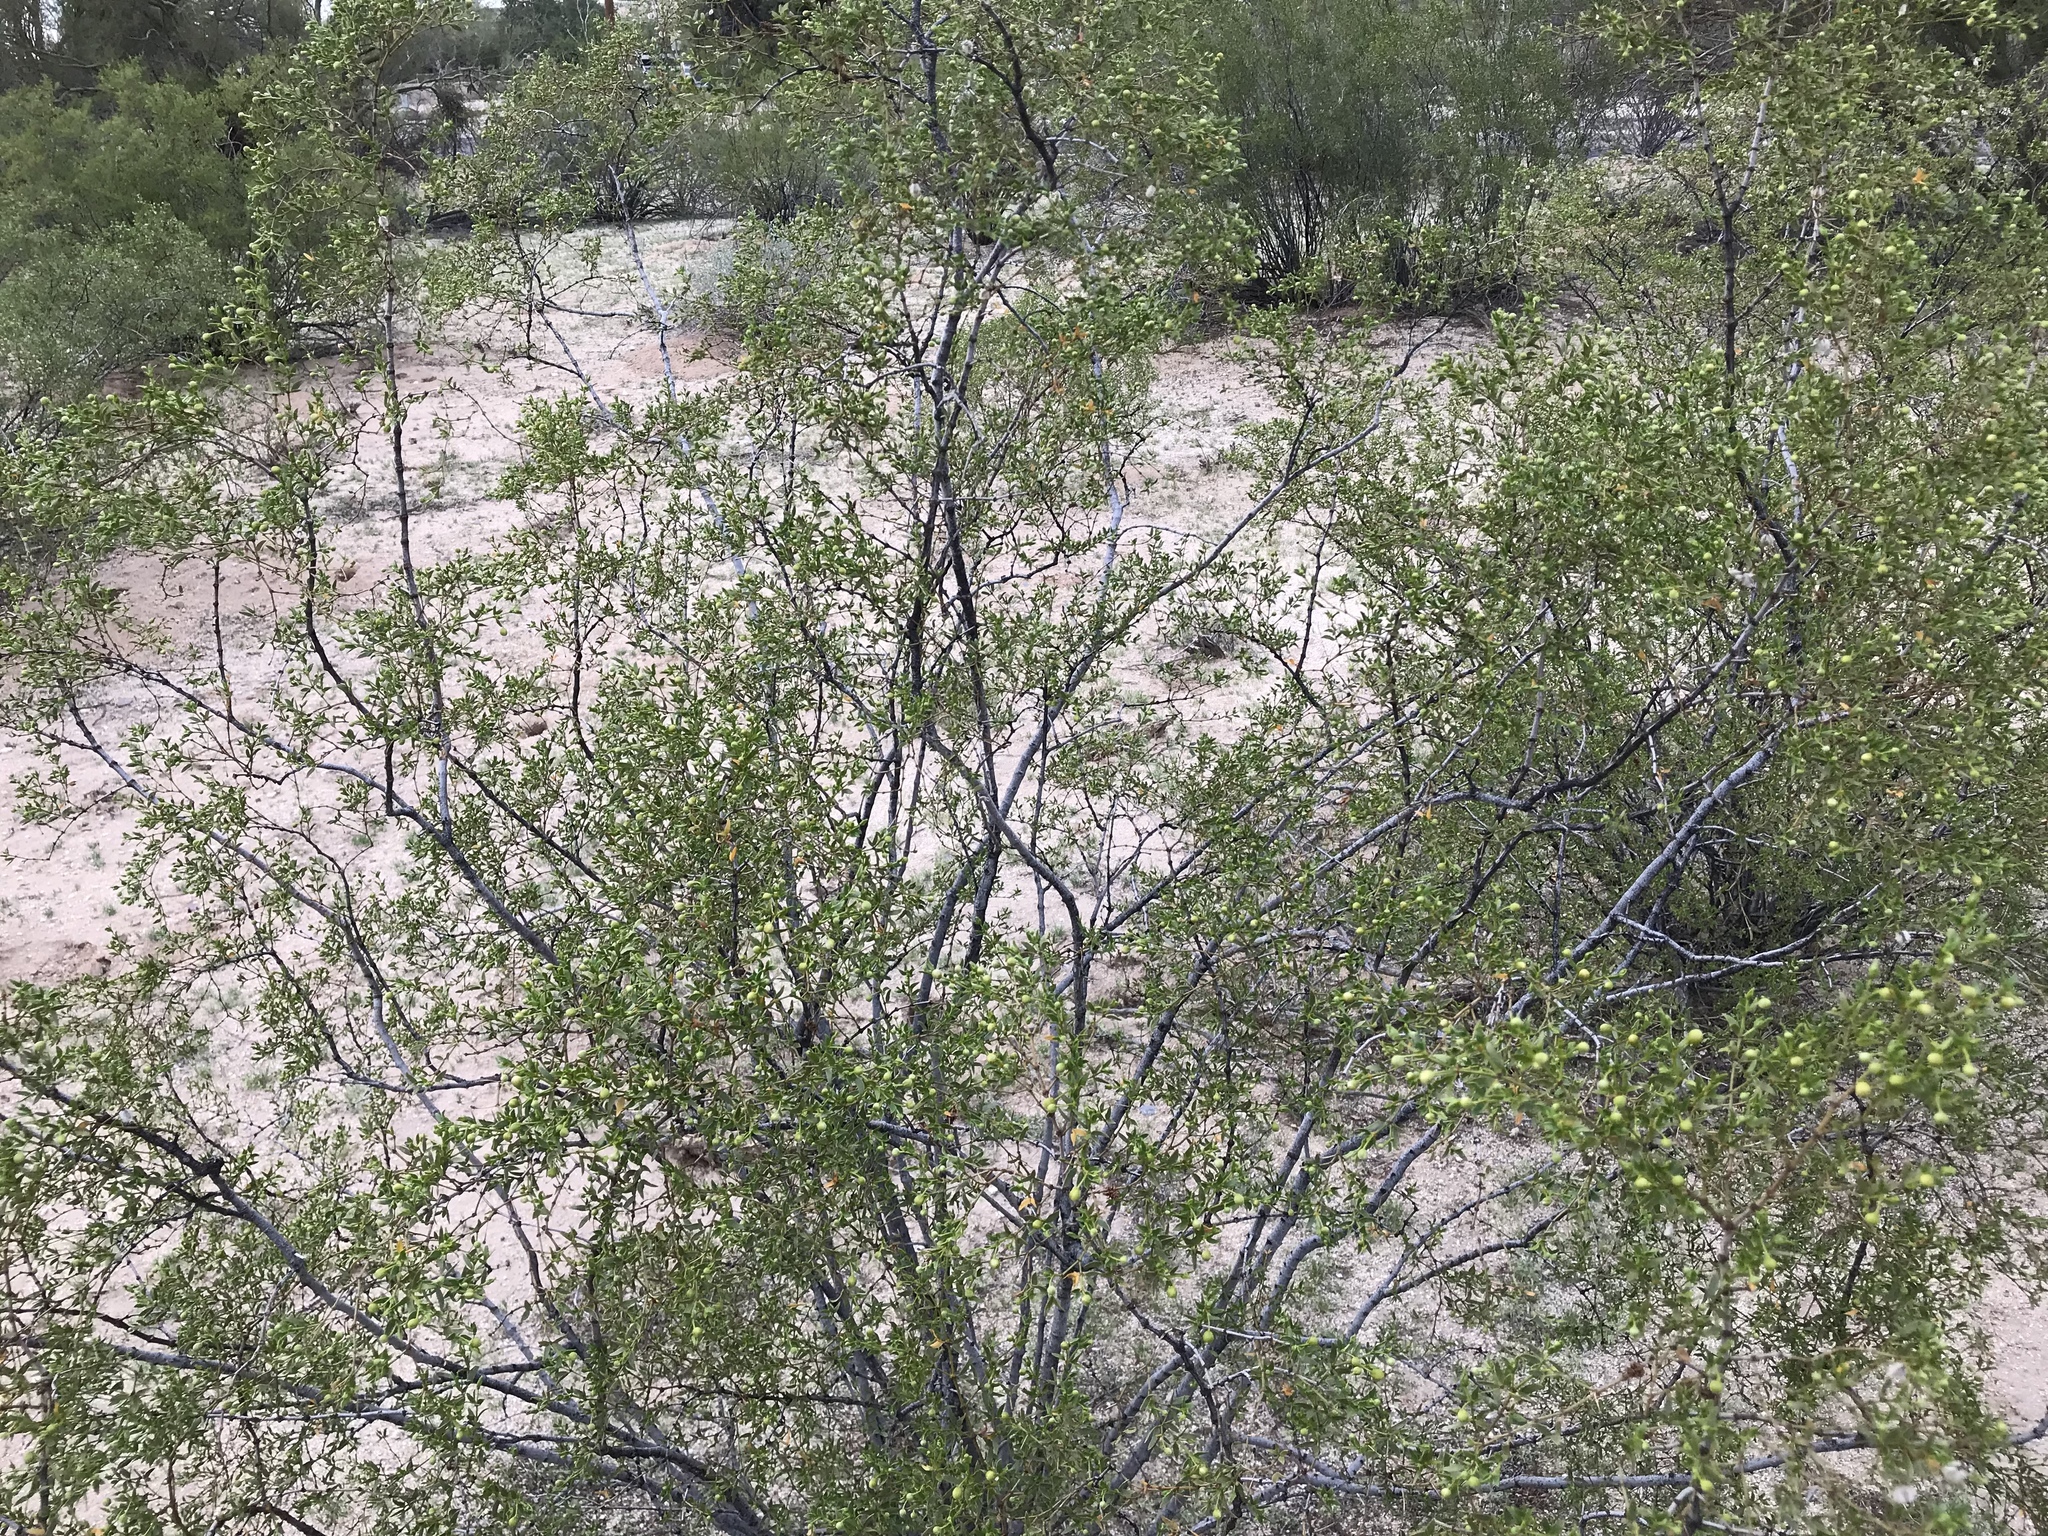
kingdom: Plantae
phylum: Tracheophyta
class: Magnoliopsida
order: Zygophyllales
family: Zygophyllaceae
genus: Larrea
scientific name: Larrea tridentata
